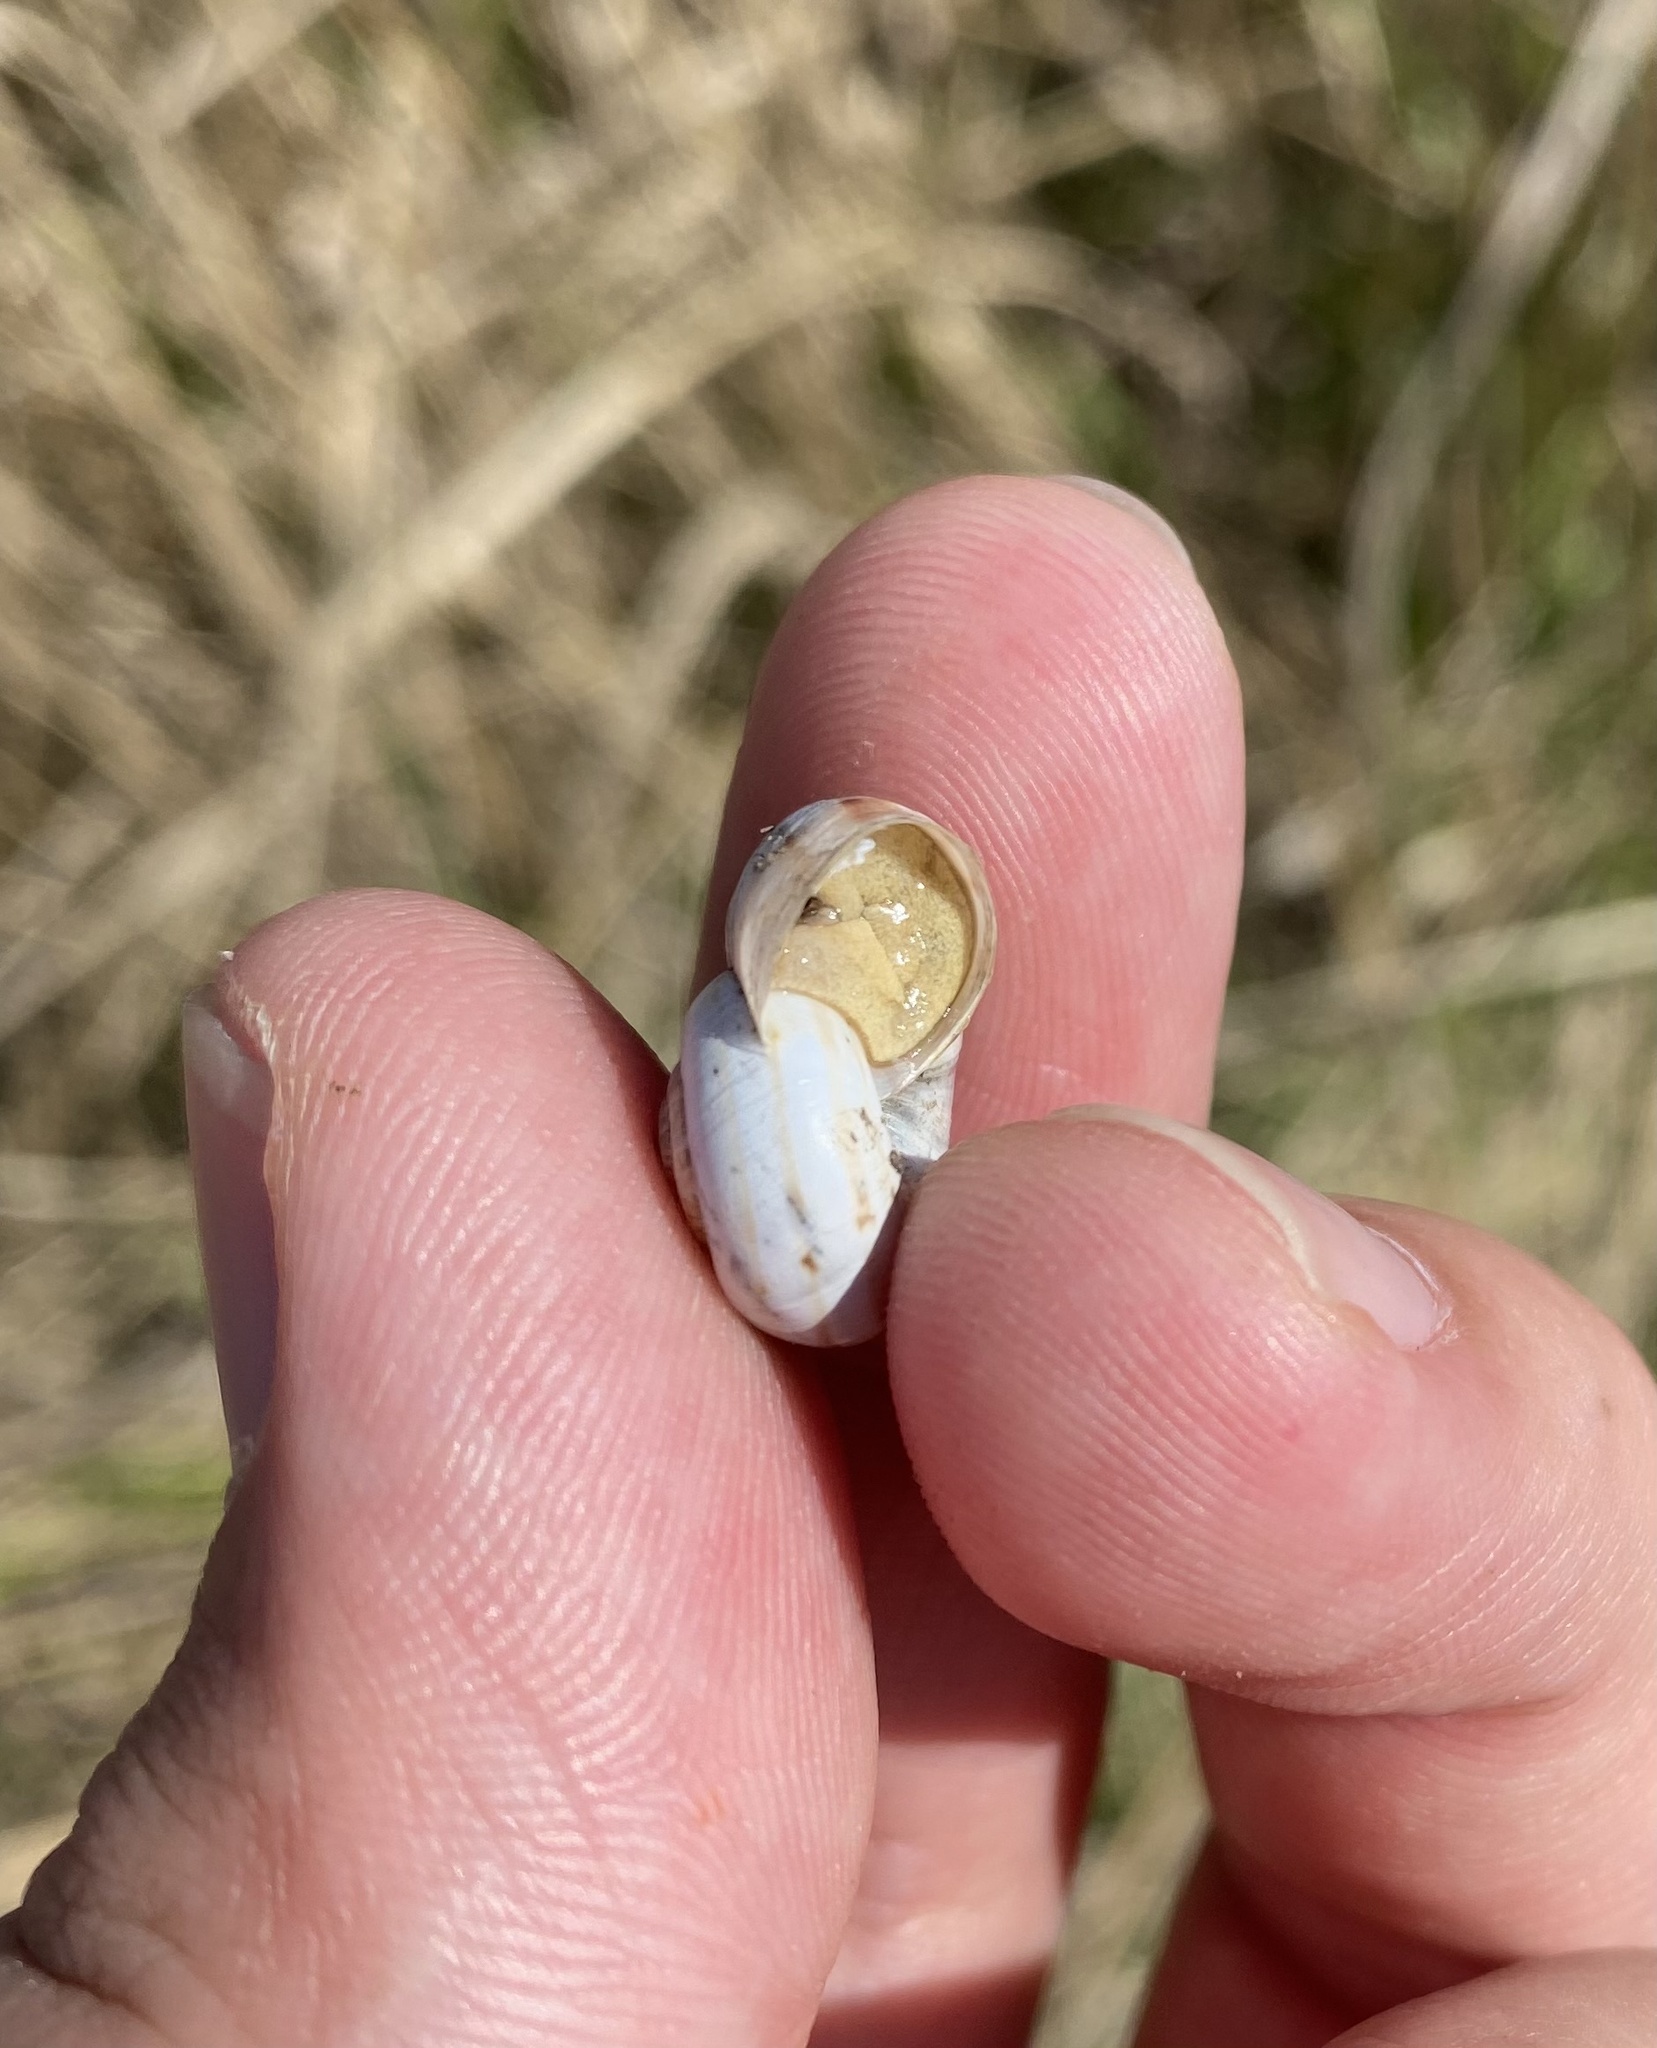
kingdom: Animalia
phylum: Mollusca
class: Gastropoda
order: Stylommatophora
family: Geomitridae
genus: Xeropicta
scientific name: Xeropicta derbentina
